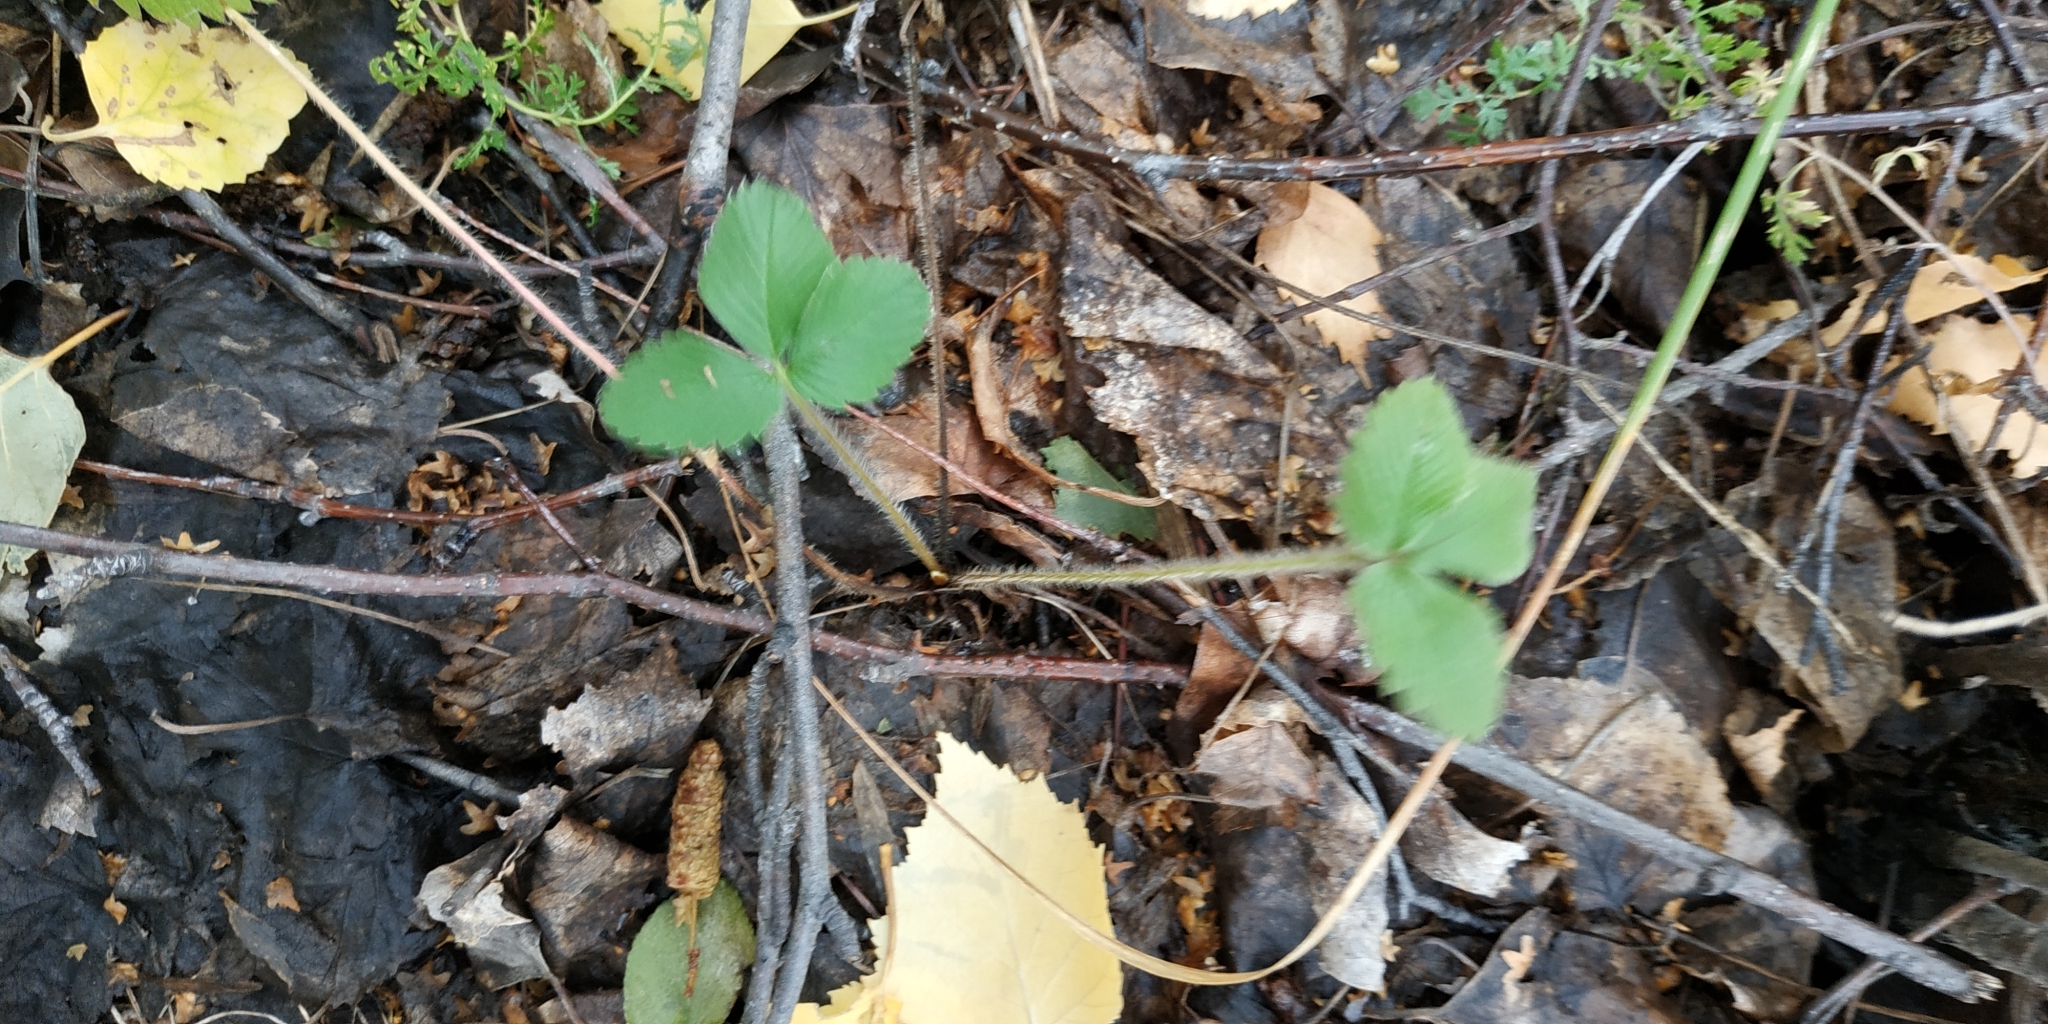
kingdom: Plantae
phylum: Tracheophyta
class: Magnoliopsida
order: Rosales
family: Rosaceae
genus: Fragaria
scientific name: Fragaria viridis
